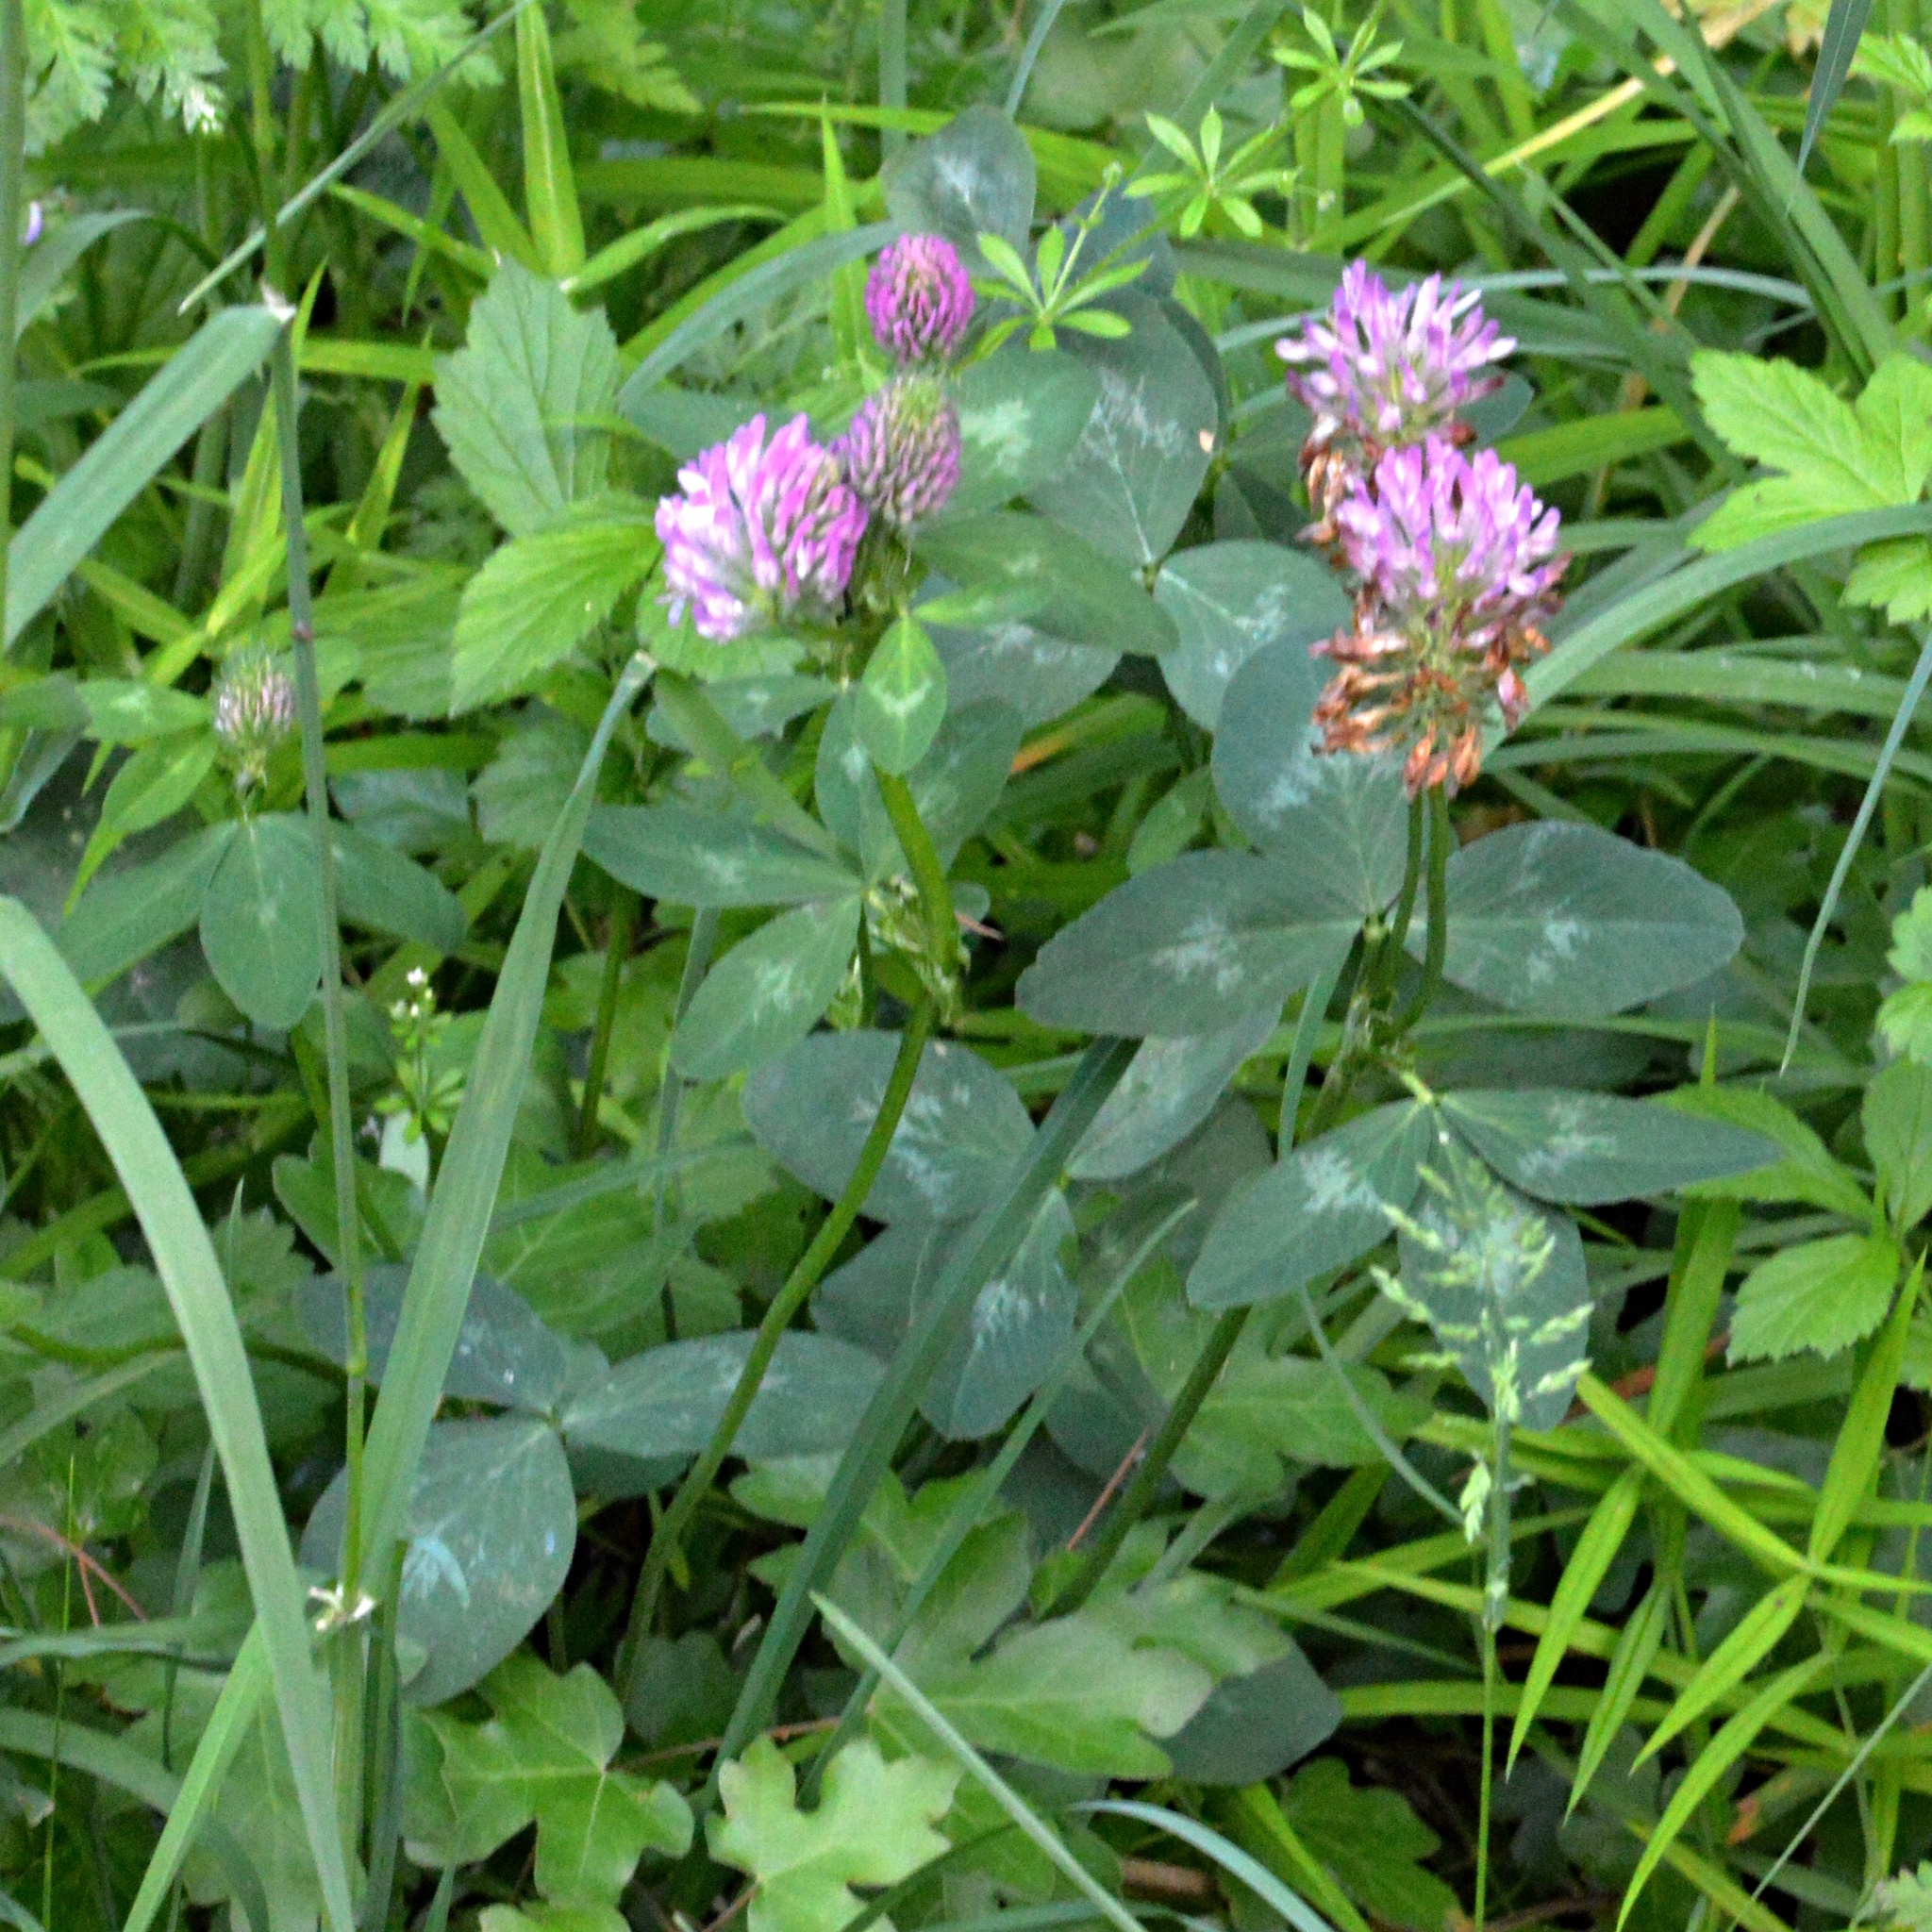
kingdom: Plantae
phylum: Tracheophyta
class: Magnoliopsida
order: Fabales
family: Fabaceae
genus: Trifolium
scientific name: Trifolium pratense
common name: Red clover
